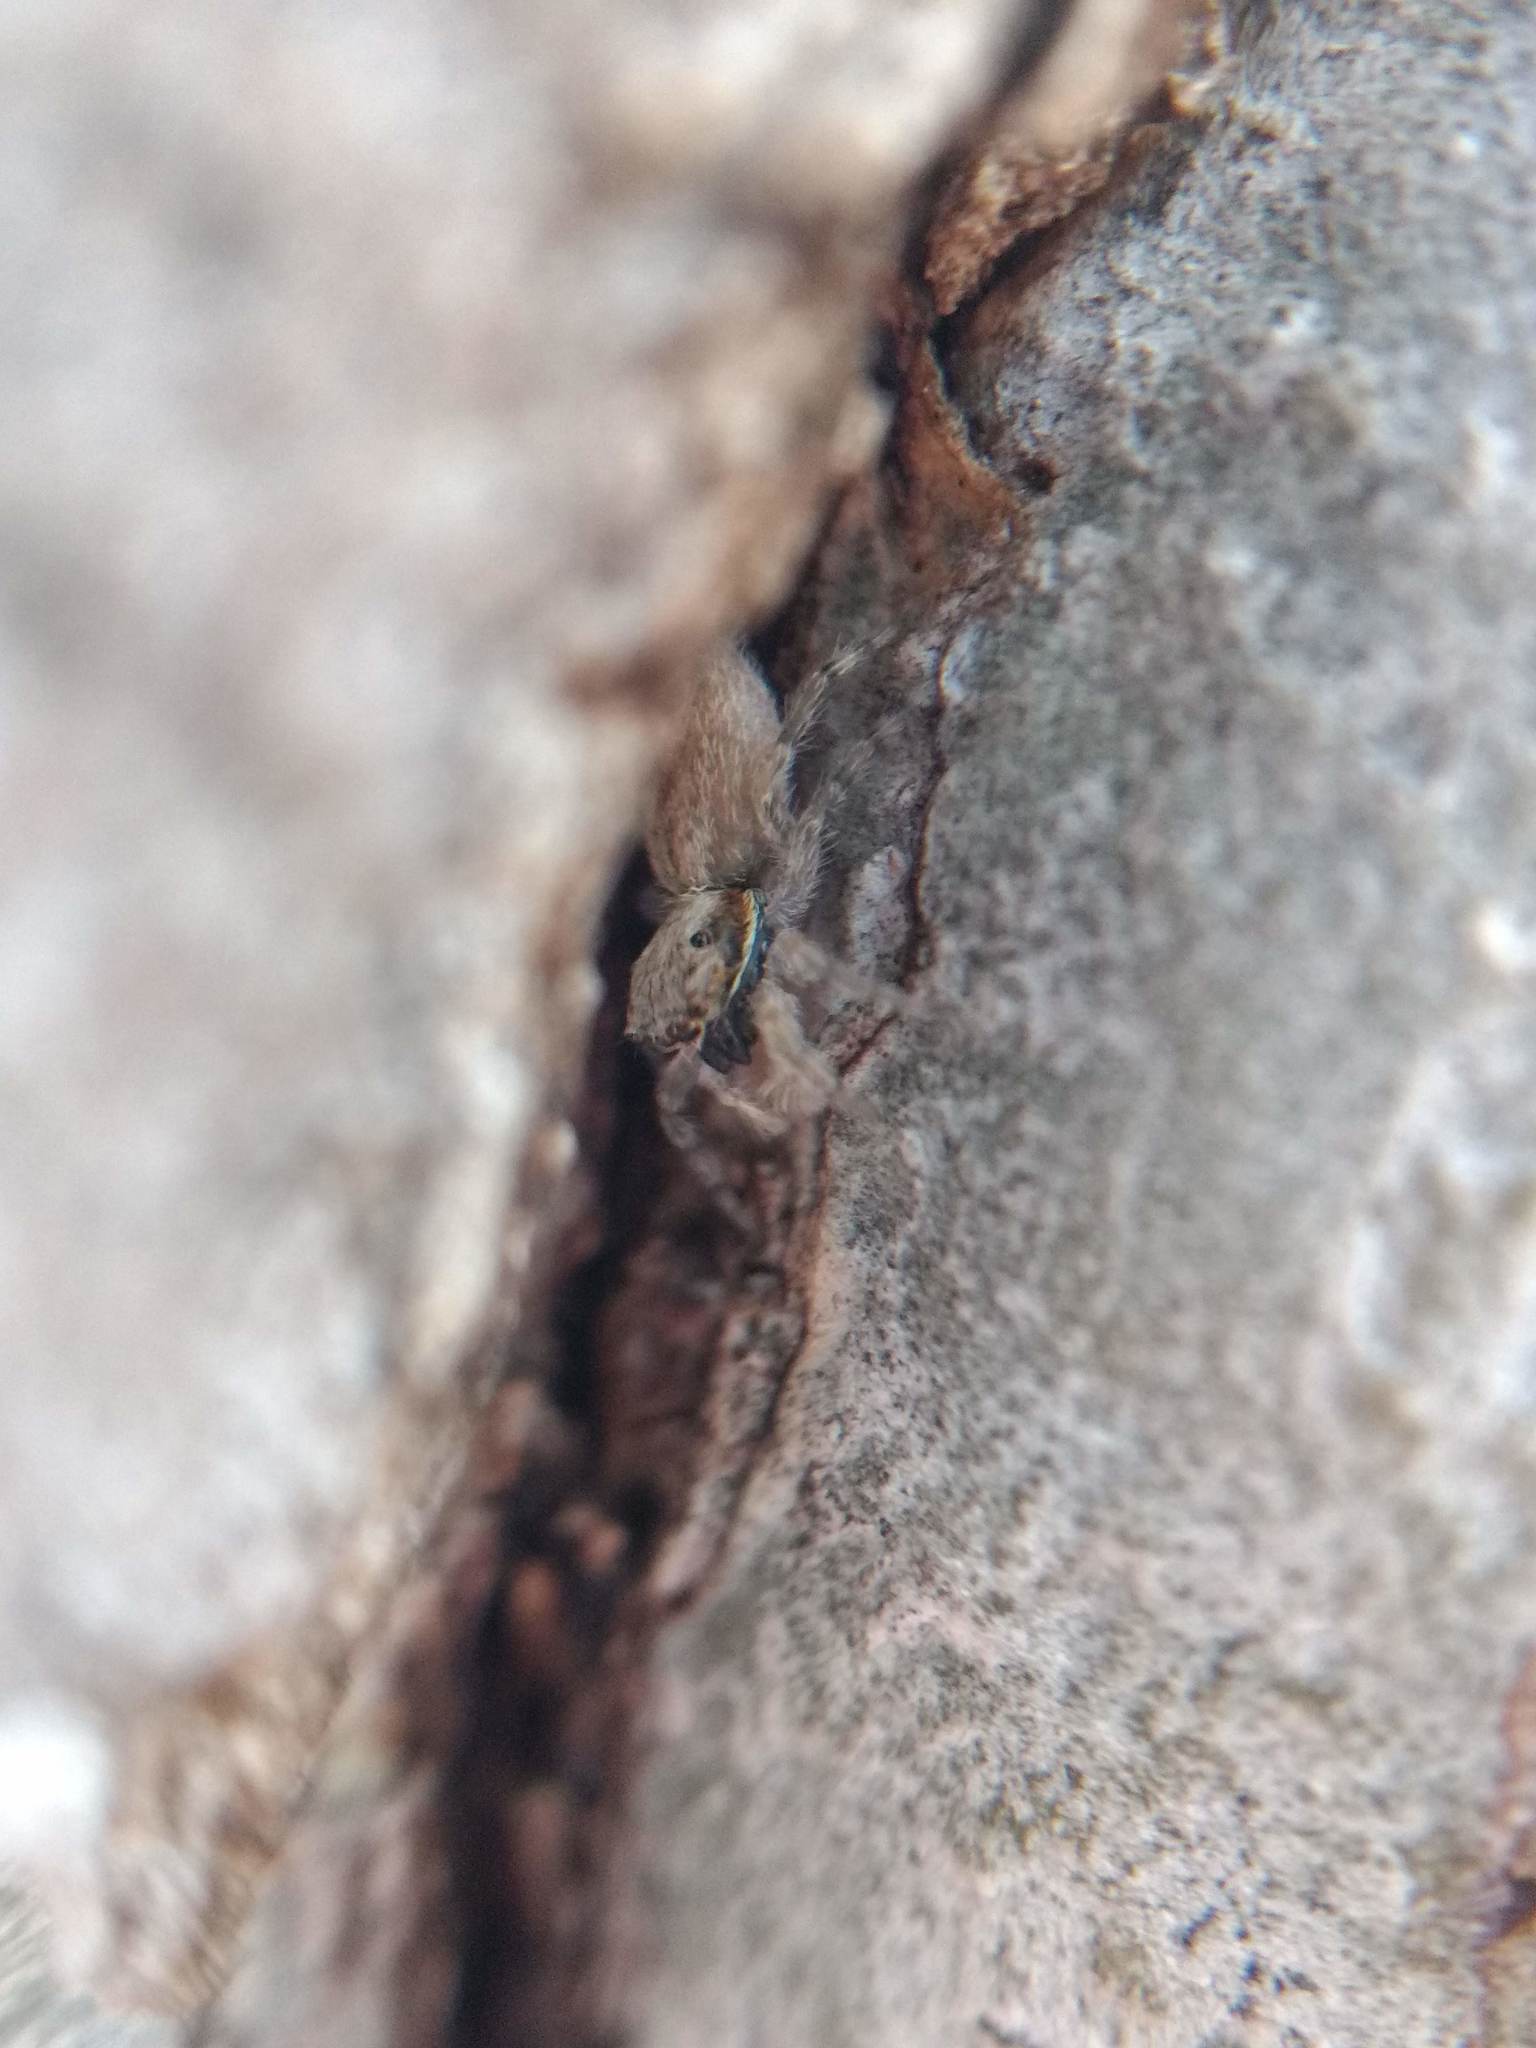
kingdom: Animalia
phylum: Arthropoda
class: Arachnida
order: Araneae
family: Salticidae
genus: Menemerus
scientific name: Menemerus bivittatus
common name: Gray wall jumper
